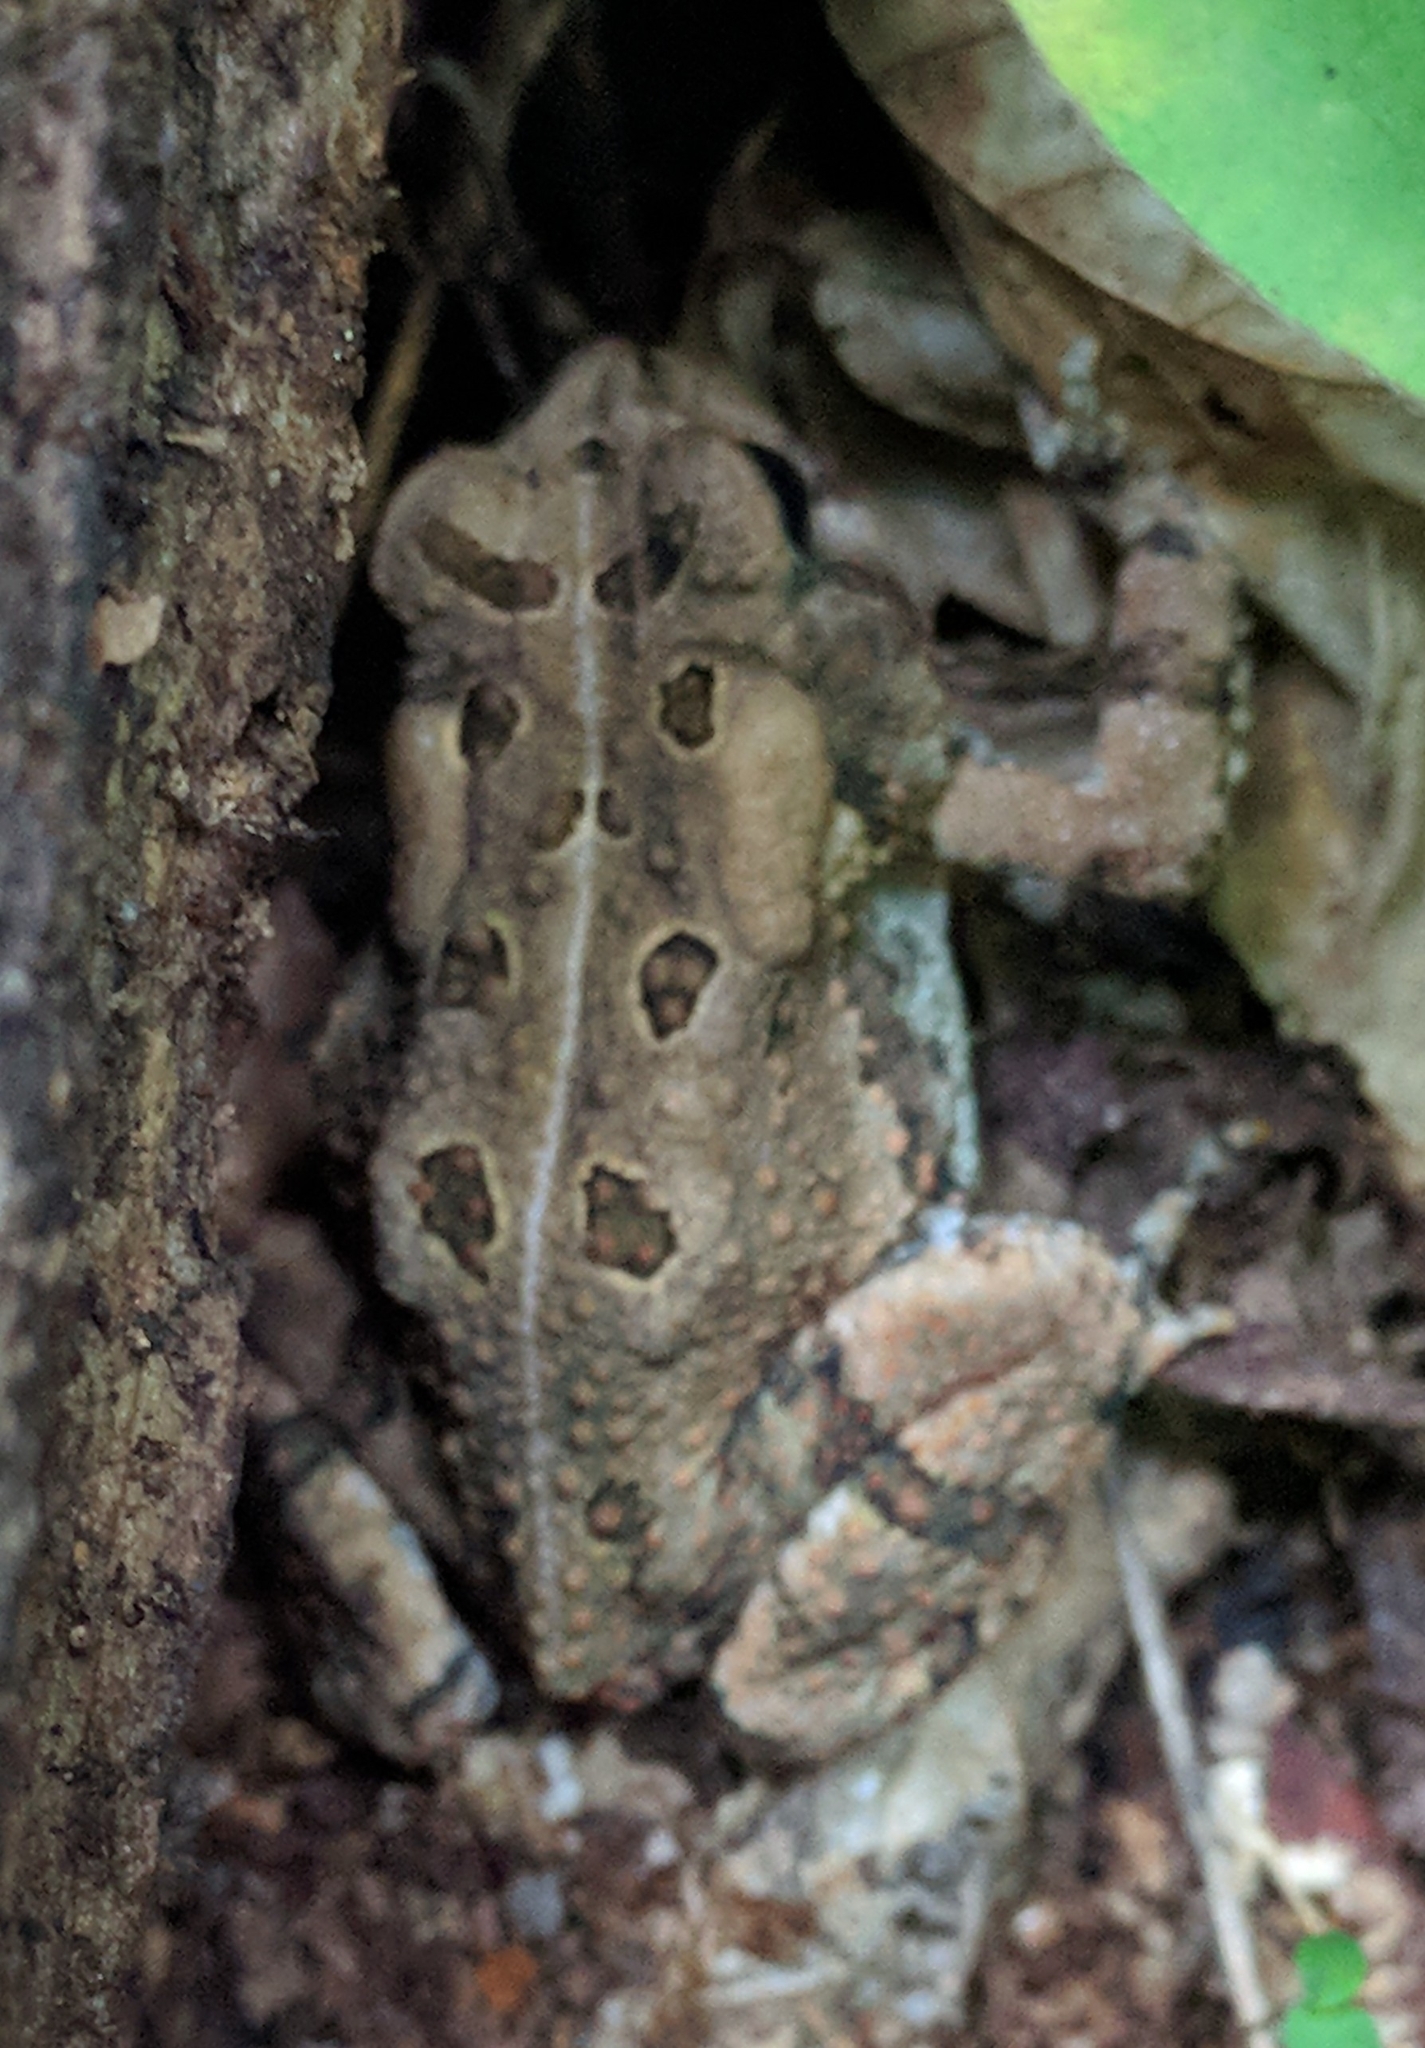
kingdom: Animalia
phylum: Chordata
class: Amphibia
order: Anura
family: Bufonidae
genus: Anaxyrus
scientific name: Anaxyrus fowleri
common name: Fowler's toad
